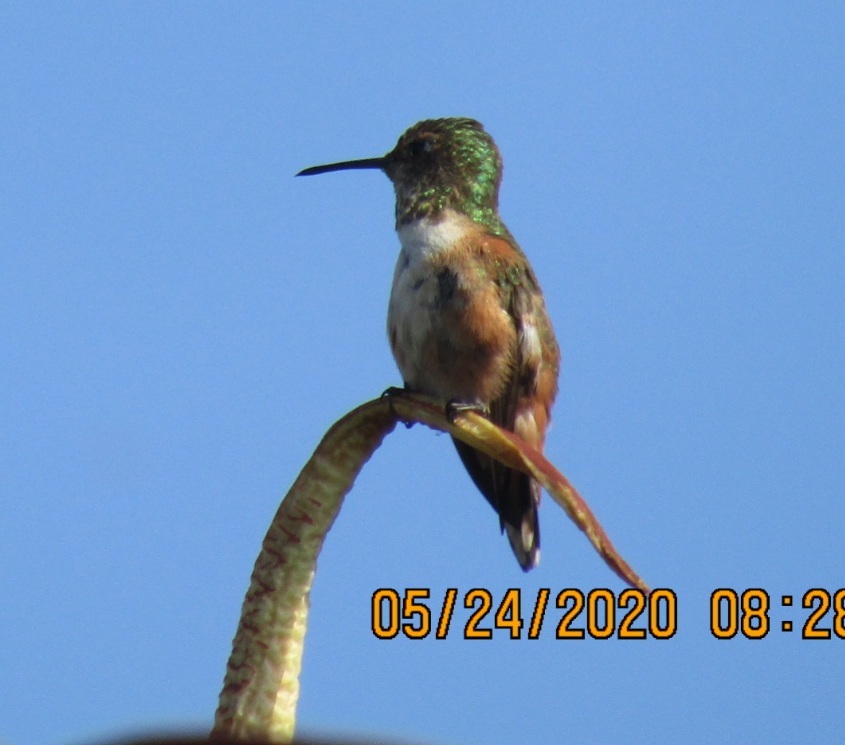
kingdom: Animalia
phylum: Chordata
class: Aves
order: Apodiformes
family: Trochilidae
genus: Selasphorus
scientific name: Selasphorus sasin
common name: Allen's hummingbird
